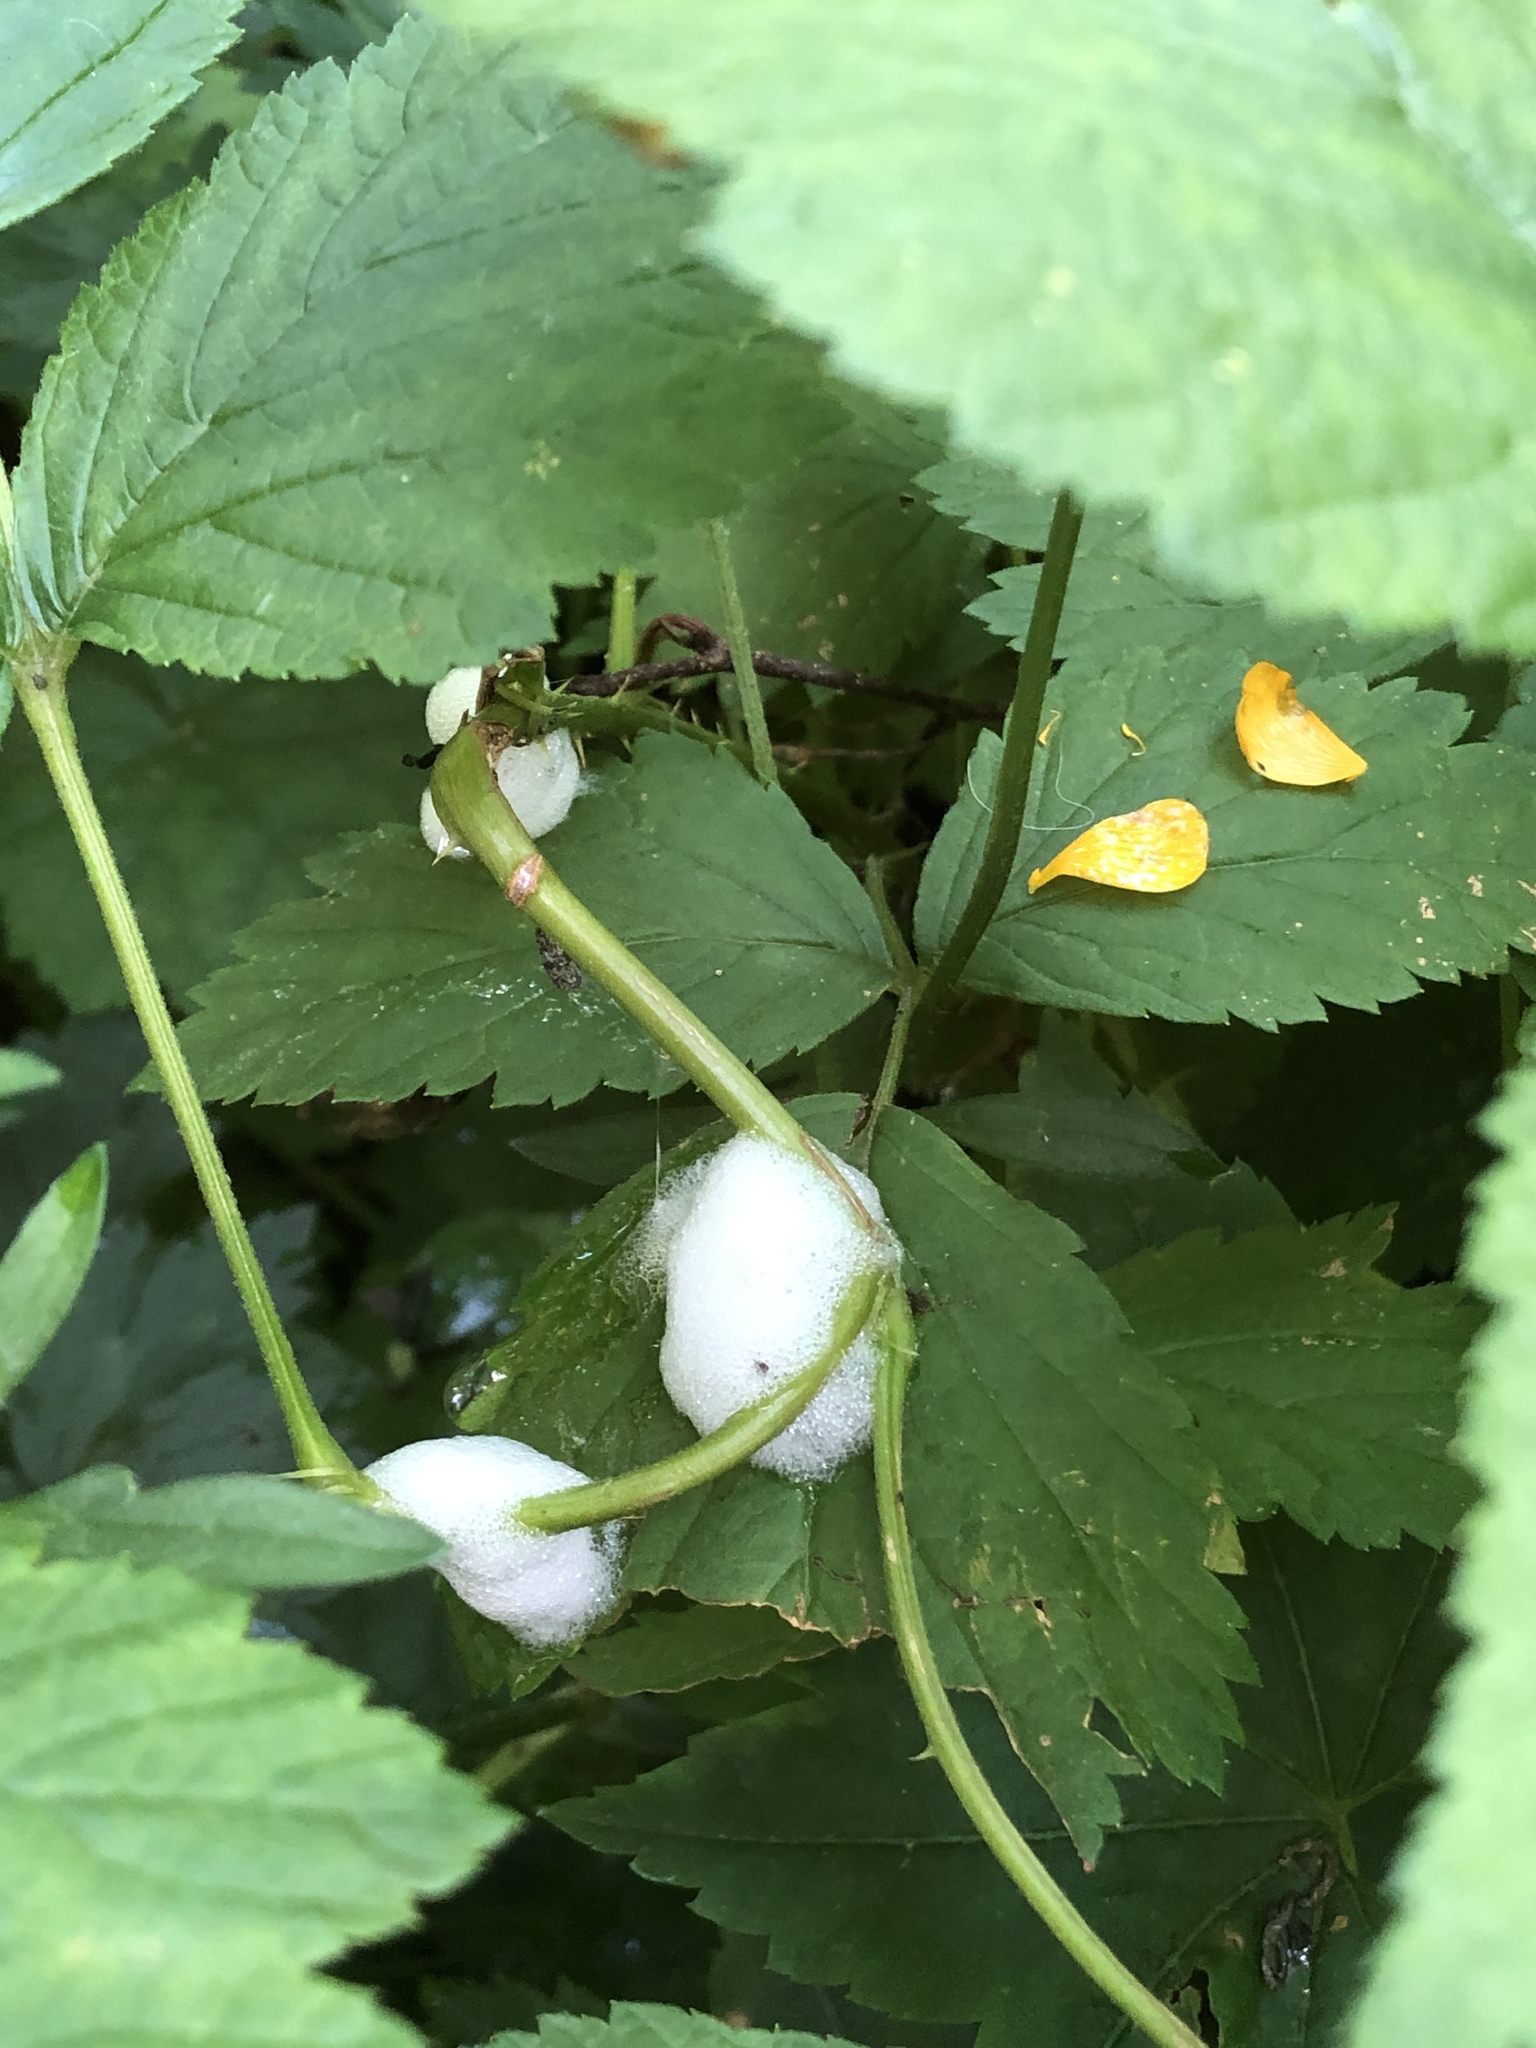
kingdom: Animalia
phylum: Arthropoda
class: Insecta
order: Hemiptera
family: Aphrophoridae
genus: Philaenus
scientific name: Philaenus spumarius
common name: Meadow spittlebug
